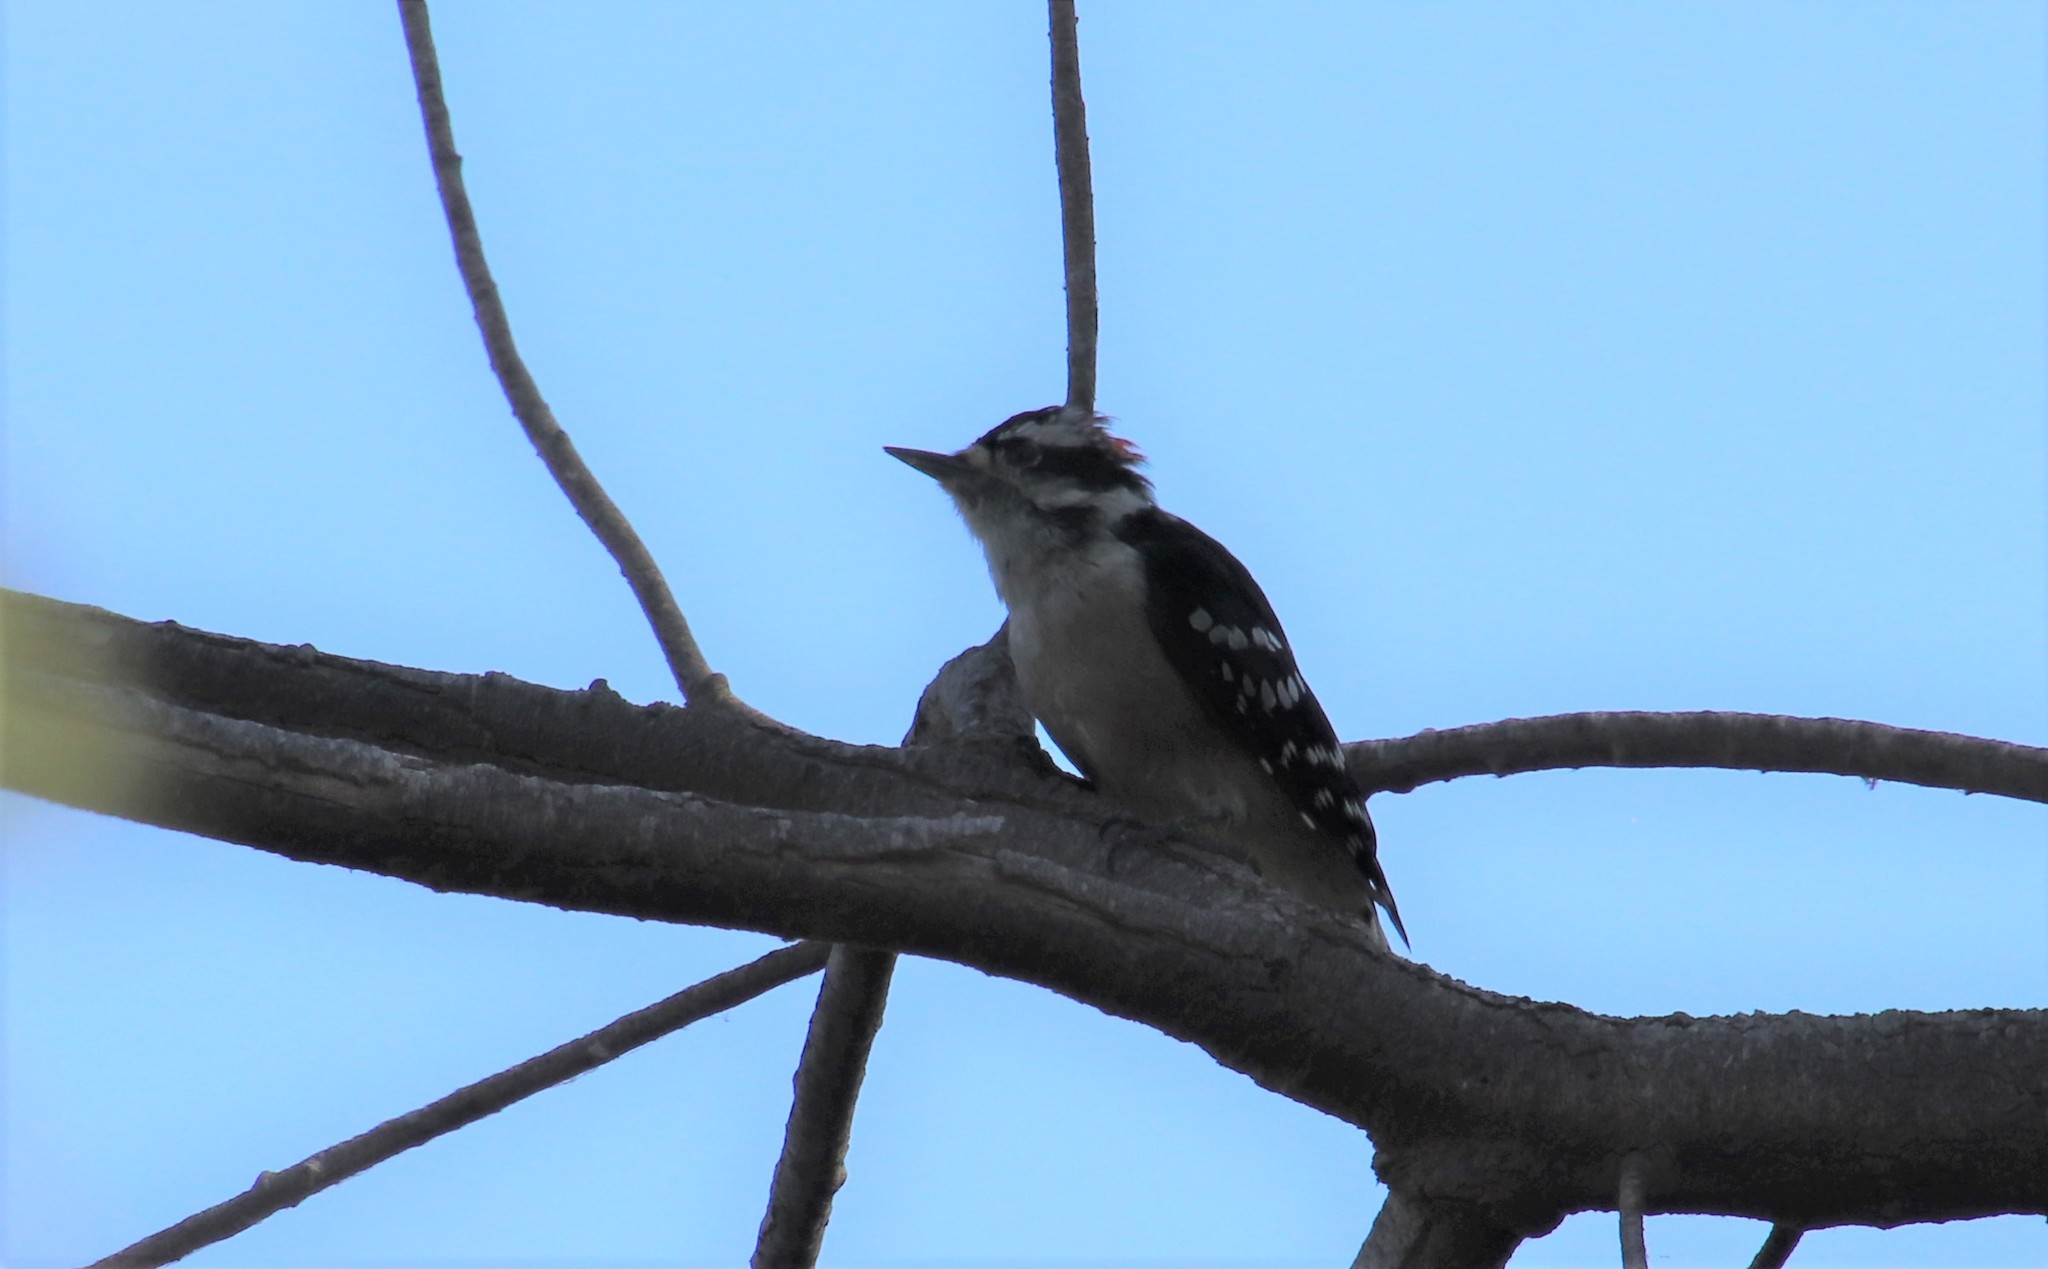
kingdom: Animalia
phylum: Chordata
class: Aves
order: Piciformes
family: Picidae
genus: Dryobates
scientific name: Dryobates pubescens
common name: Downy woodpecker
